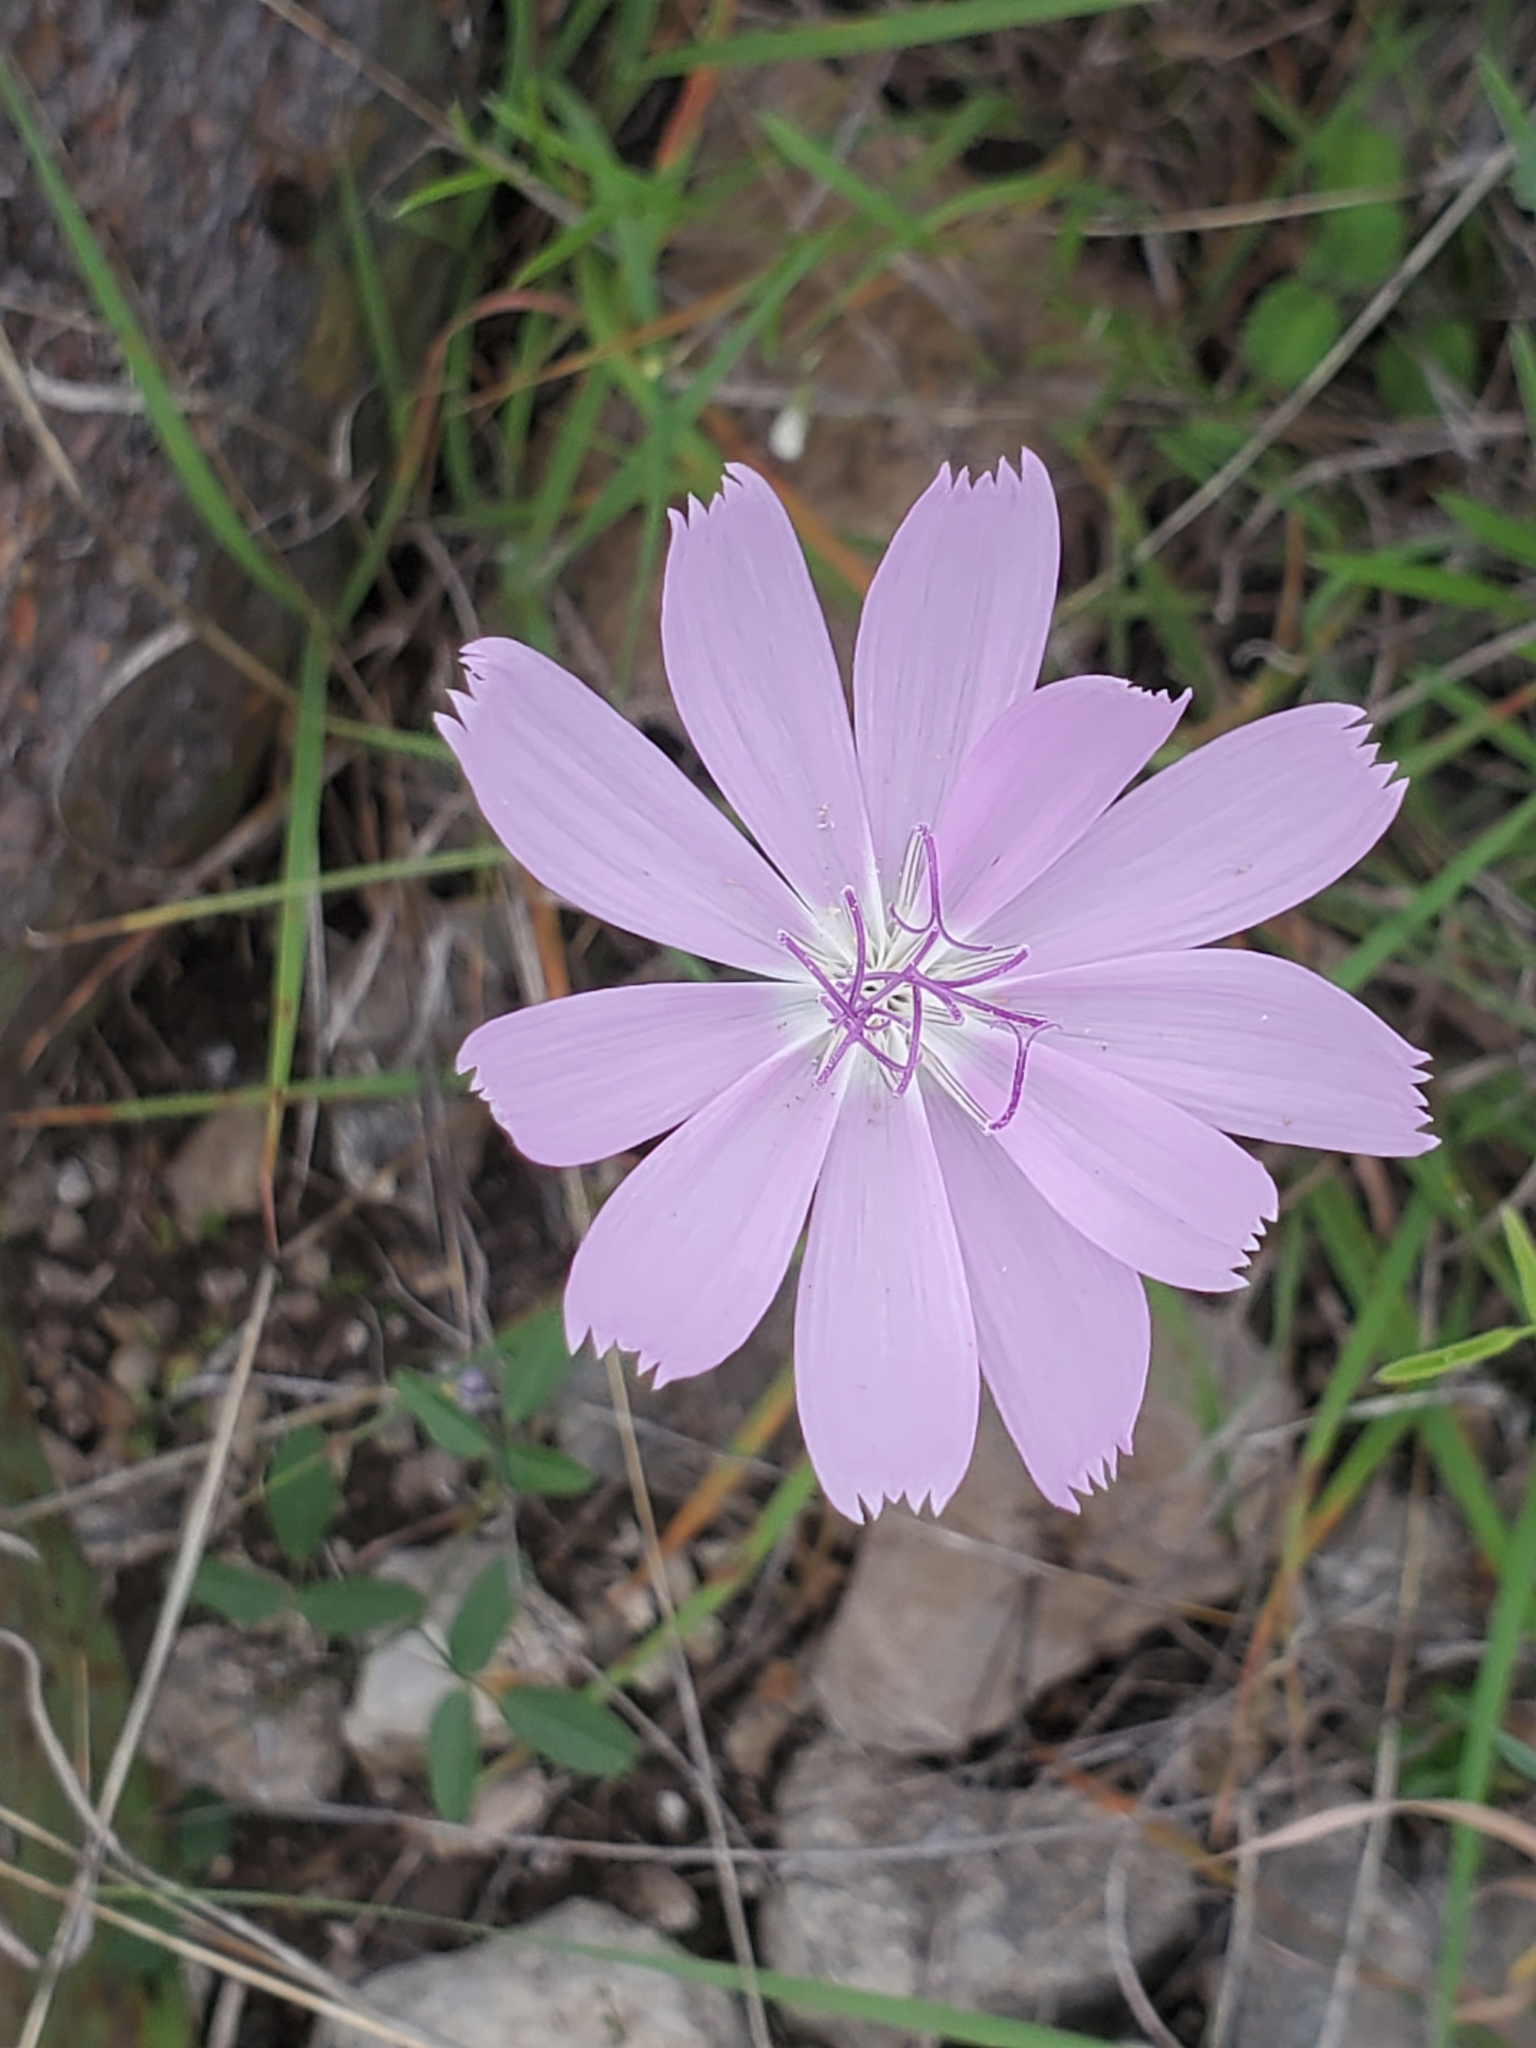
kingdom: Plantae
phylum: Tracheophyta
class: Magnoliopsida
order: Asterales
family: Asteraceae
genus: Lygodesmia
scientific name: Lygodesmia texana
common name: Texas skeleton-plant
